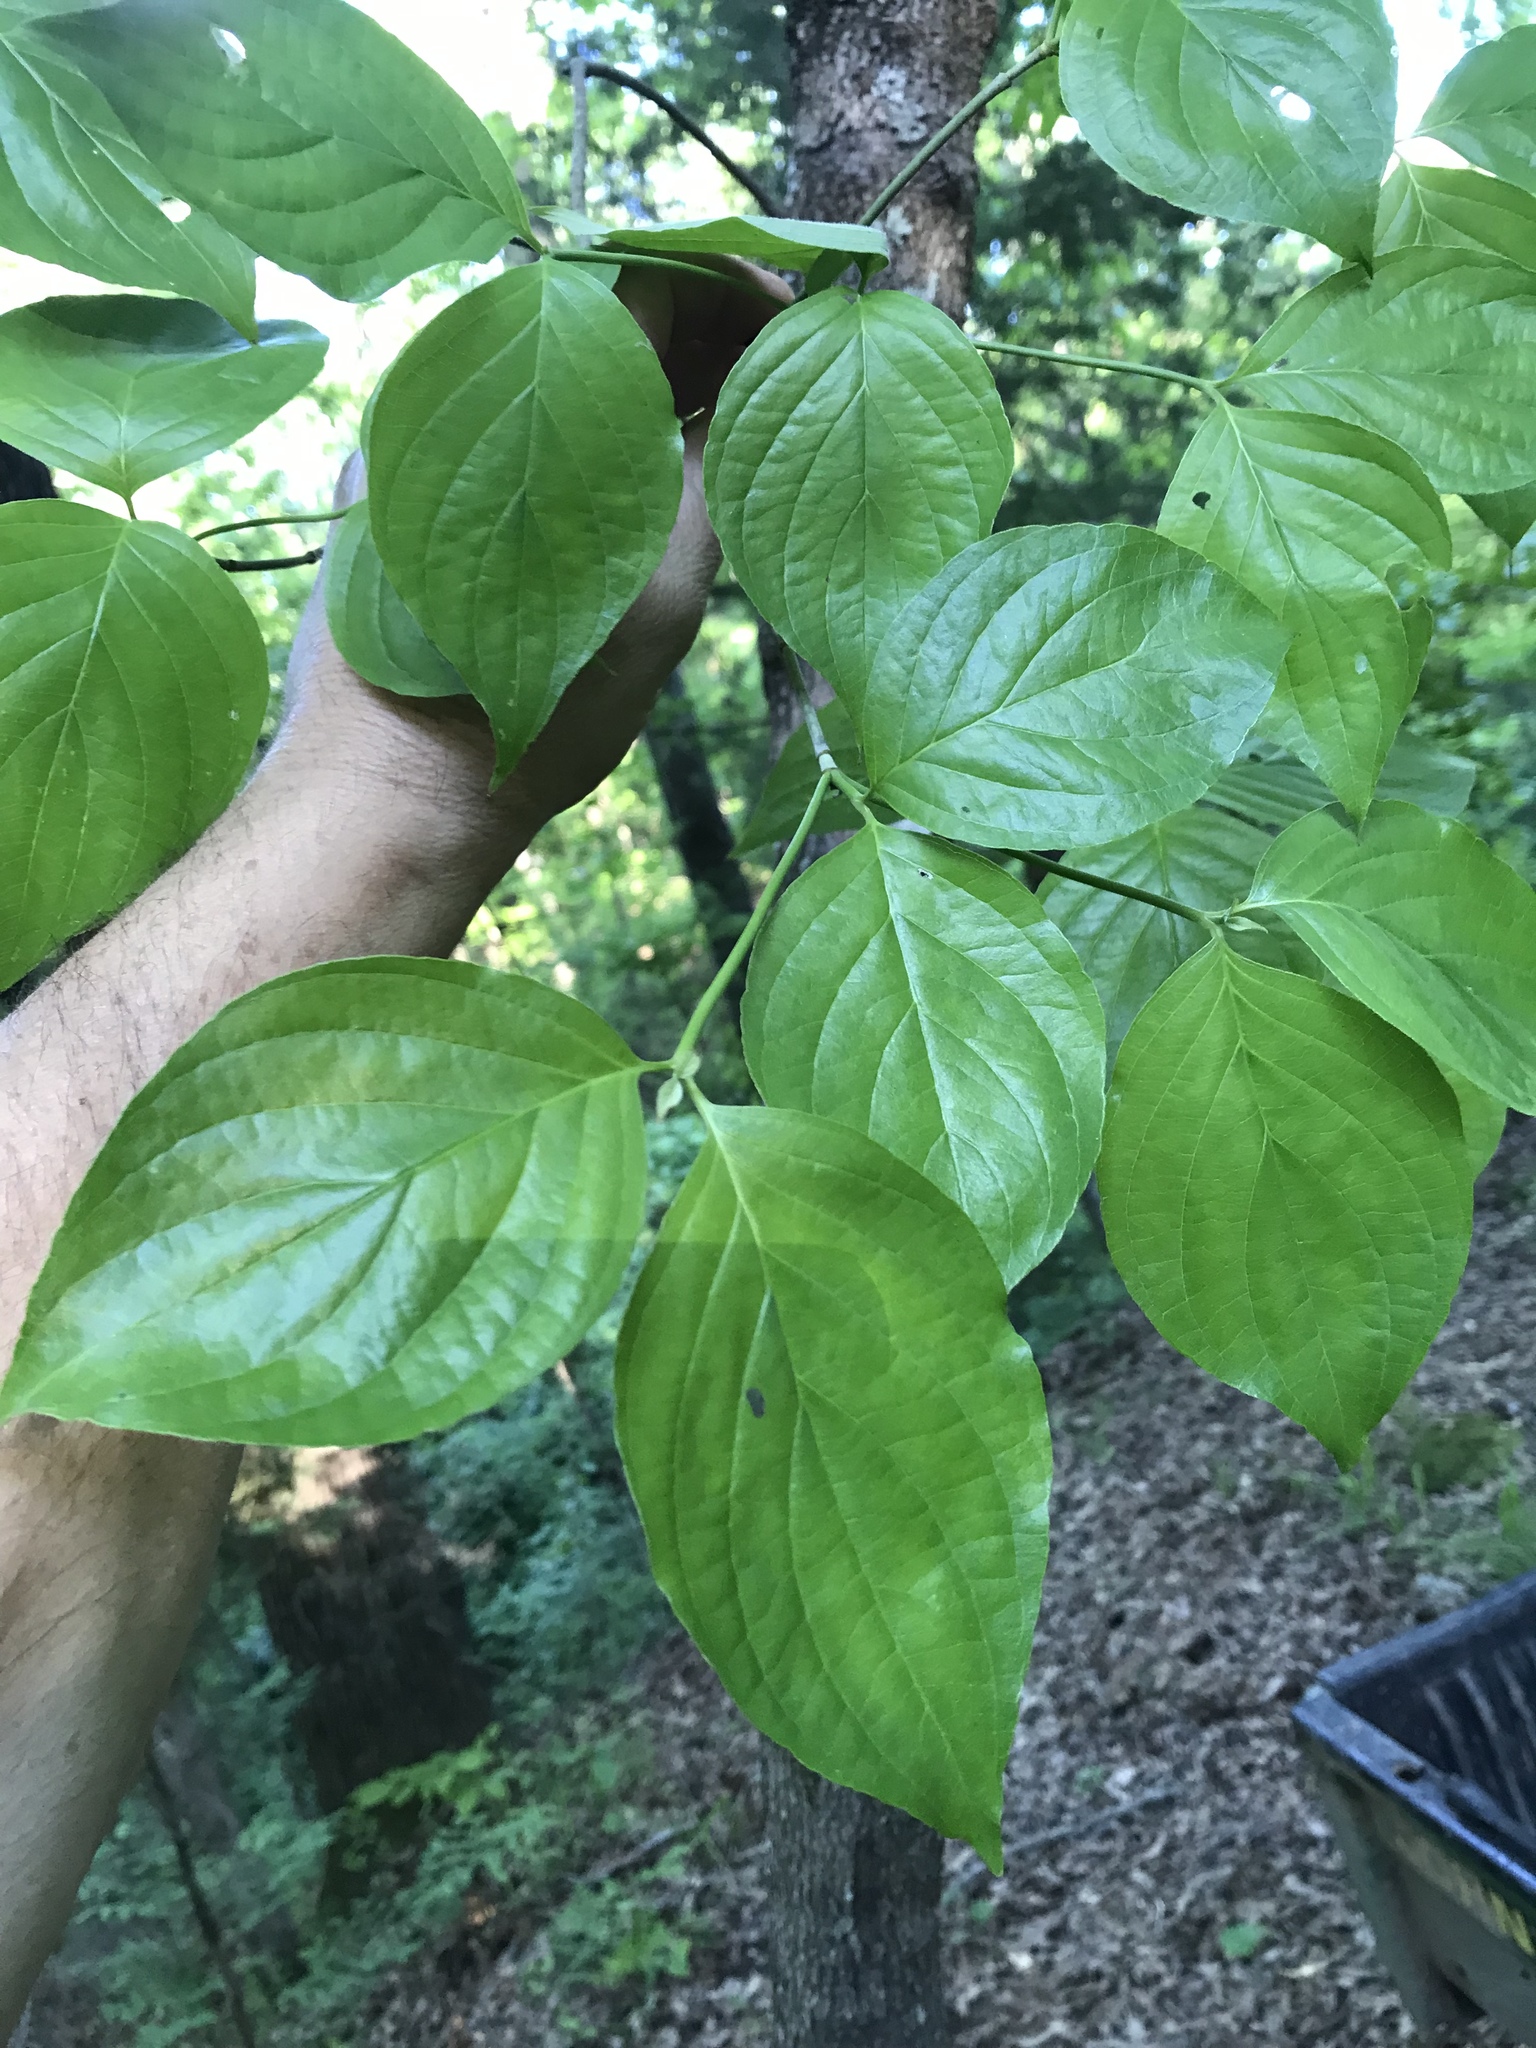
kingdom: Plantae
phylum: Tracheophyta
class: Magnoliopsida
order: Cornales
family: Cornaceae
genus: Cornus
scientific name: Cornus florida
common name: Flowering dogwood
